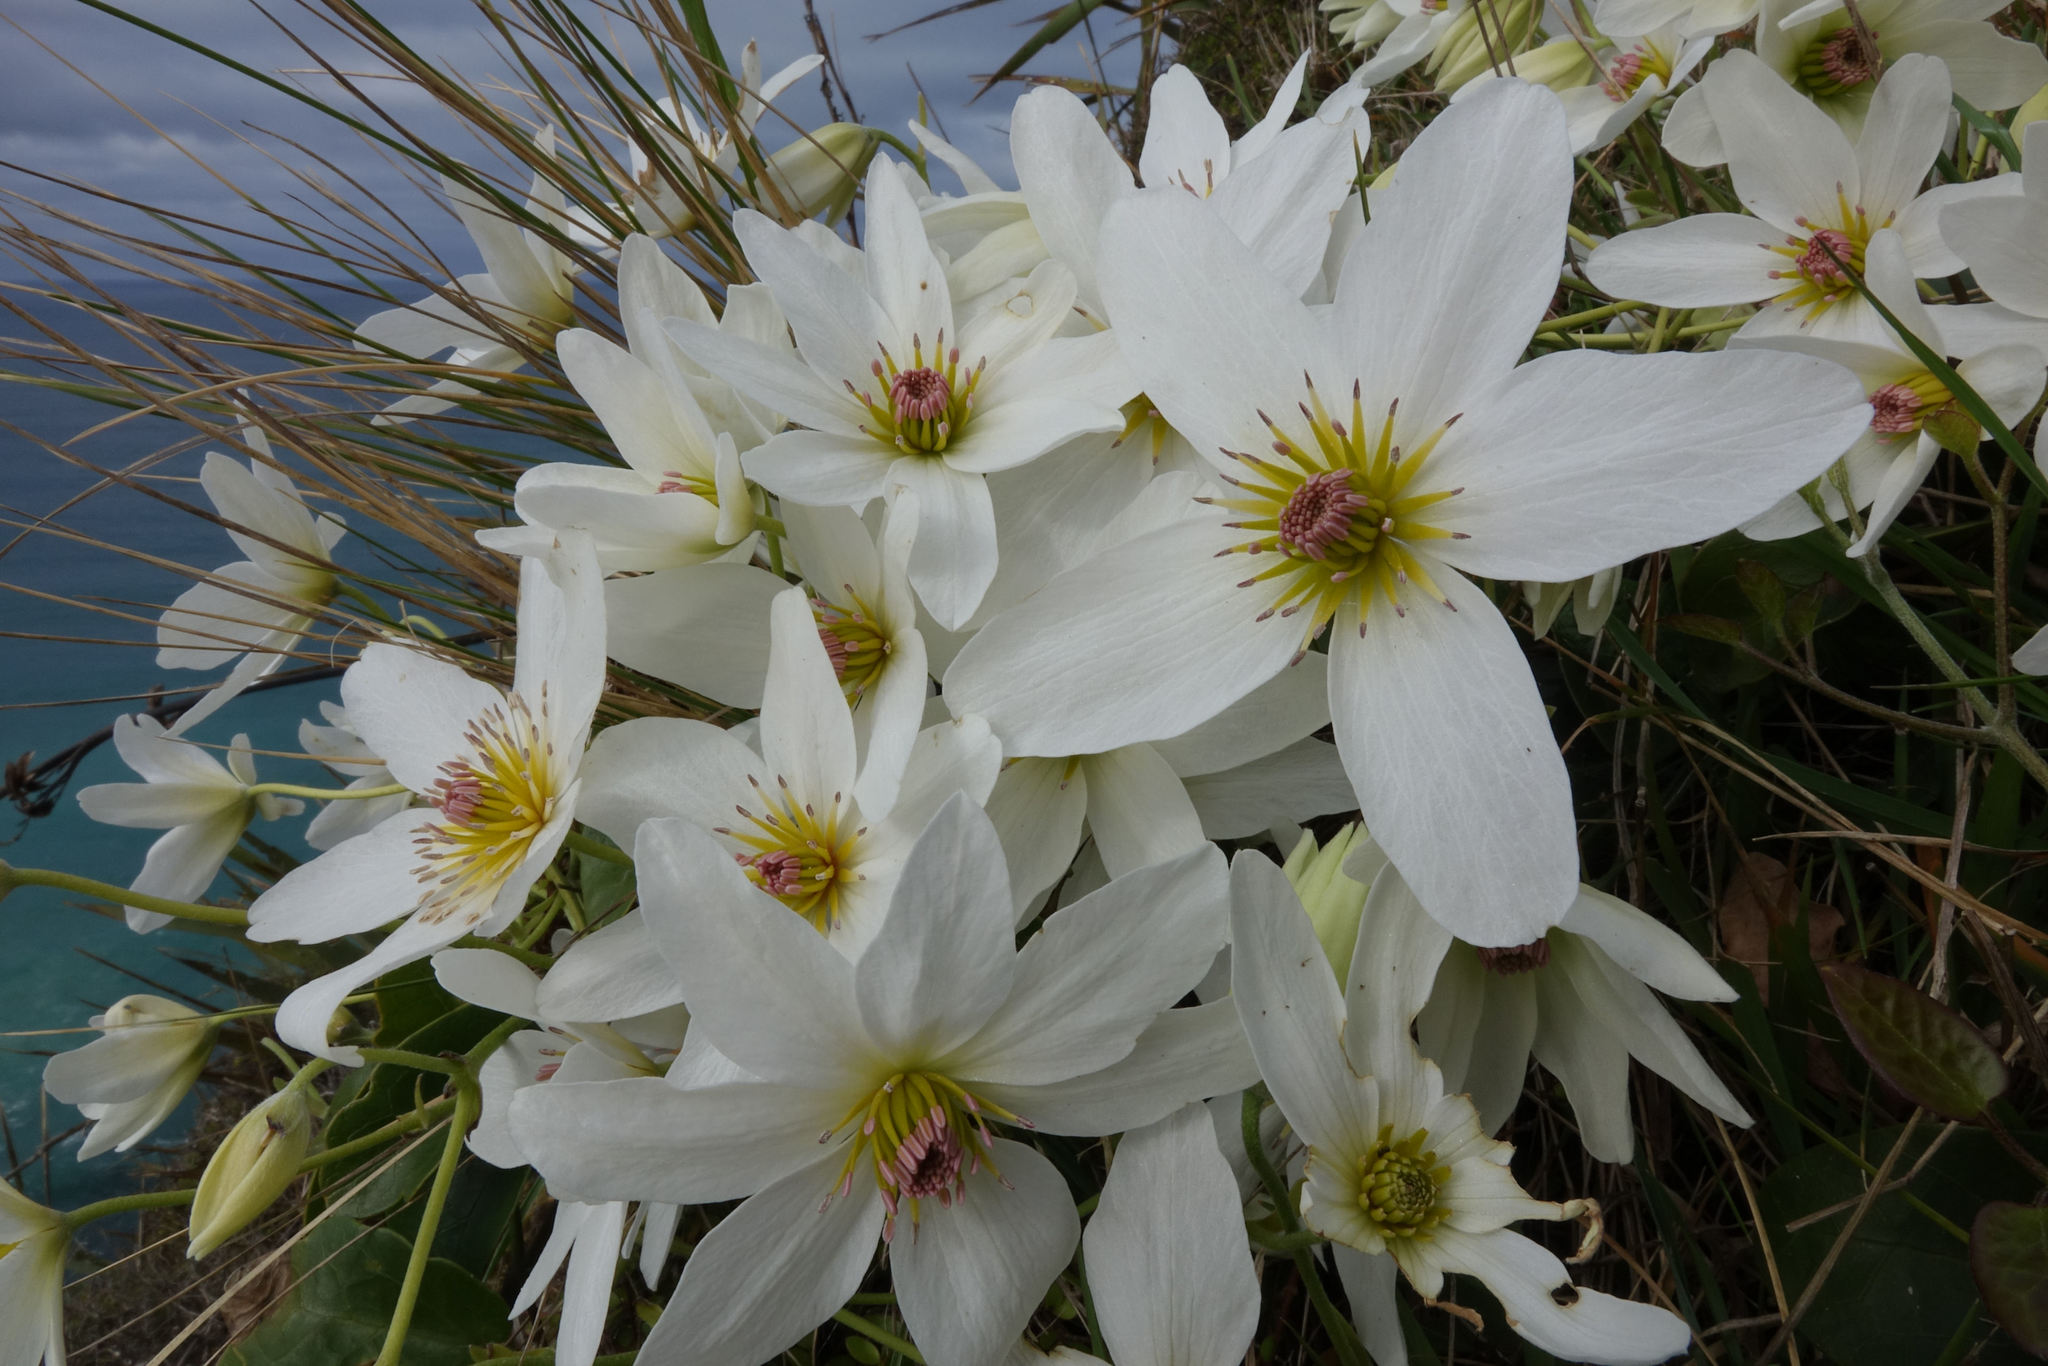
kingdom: Plantae
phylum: Tracheophyta
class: Magnoliopsida
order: Ranunculales
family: Ranunculaceae
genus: Clematis
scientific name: Clematis paniculata
